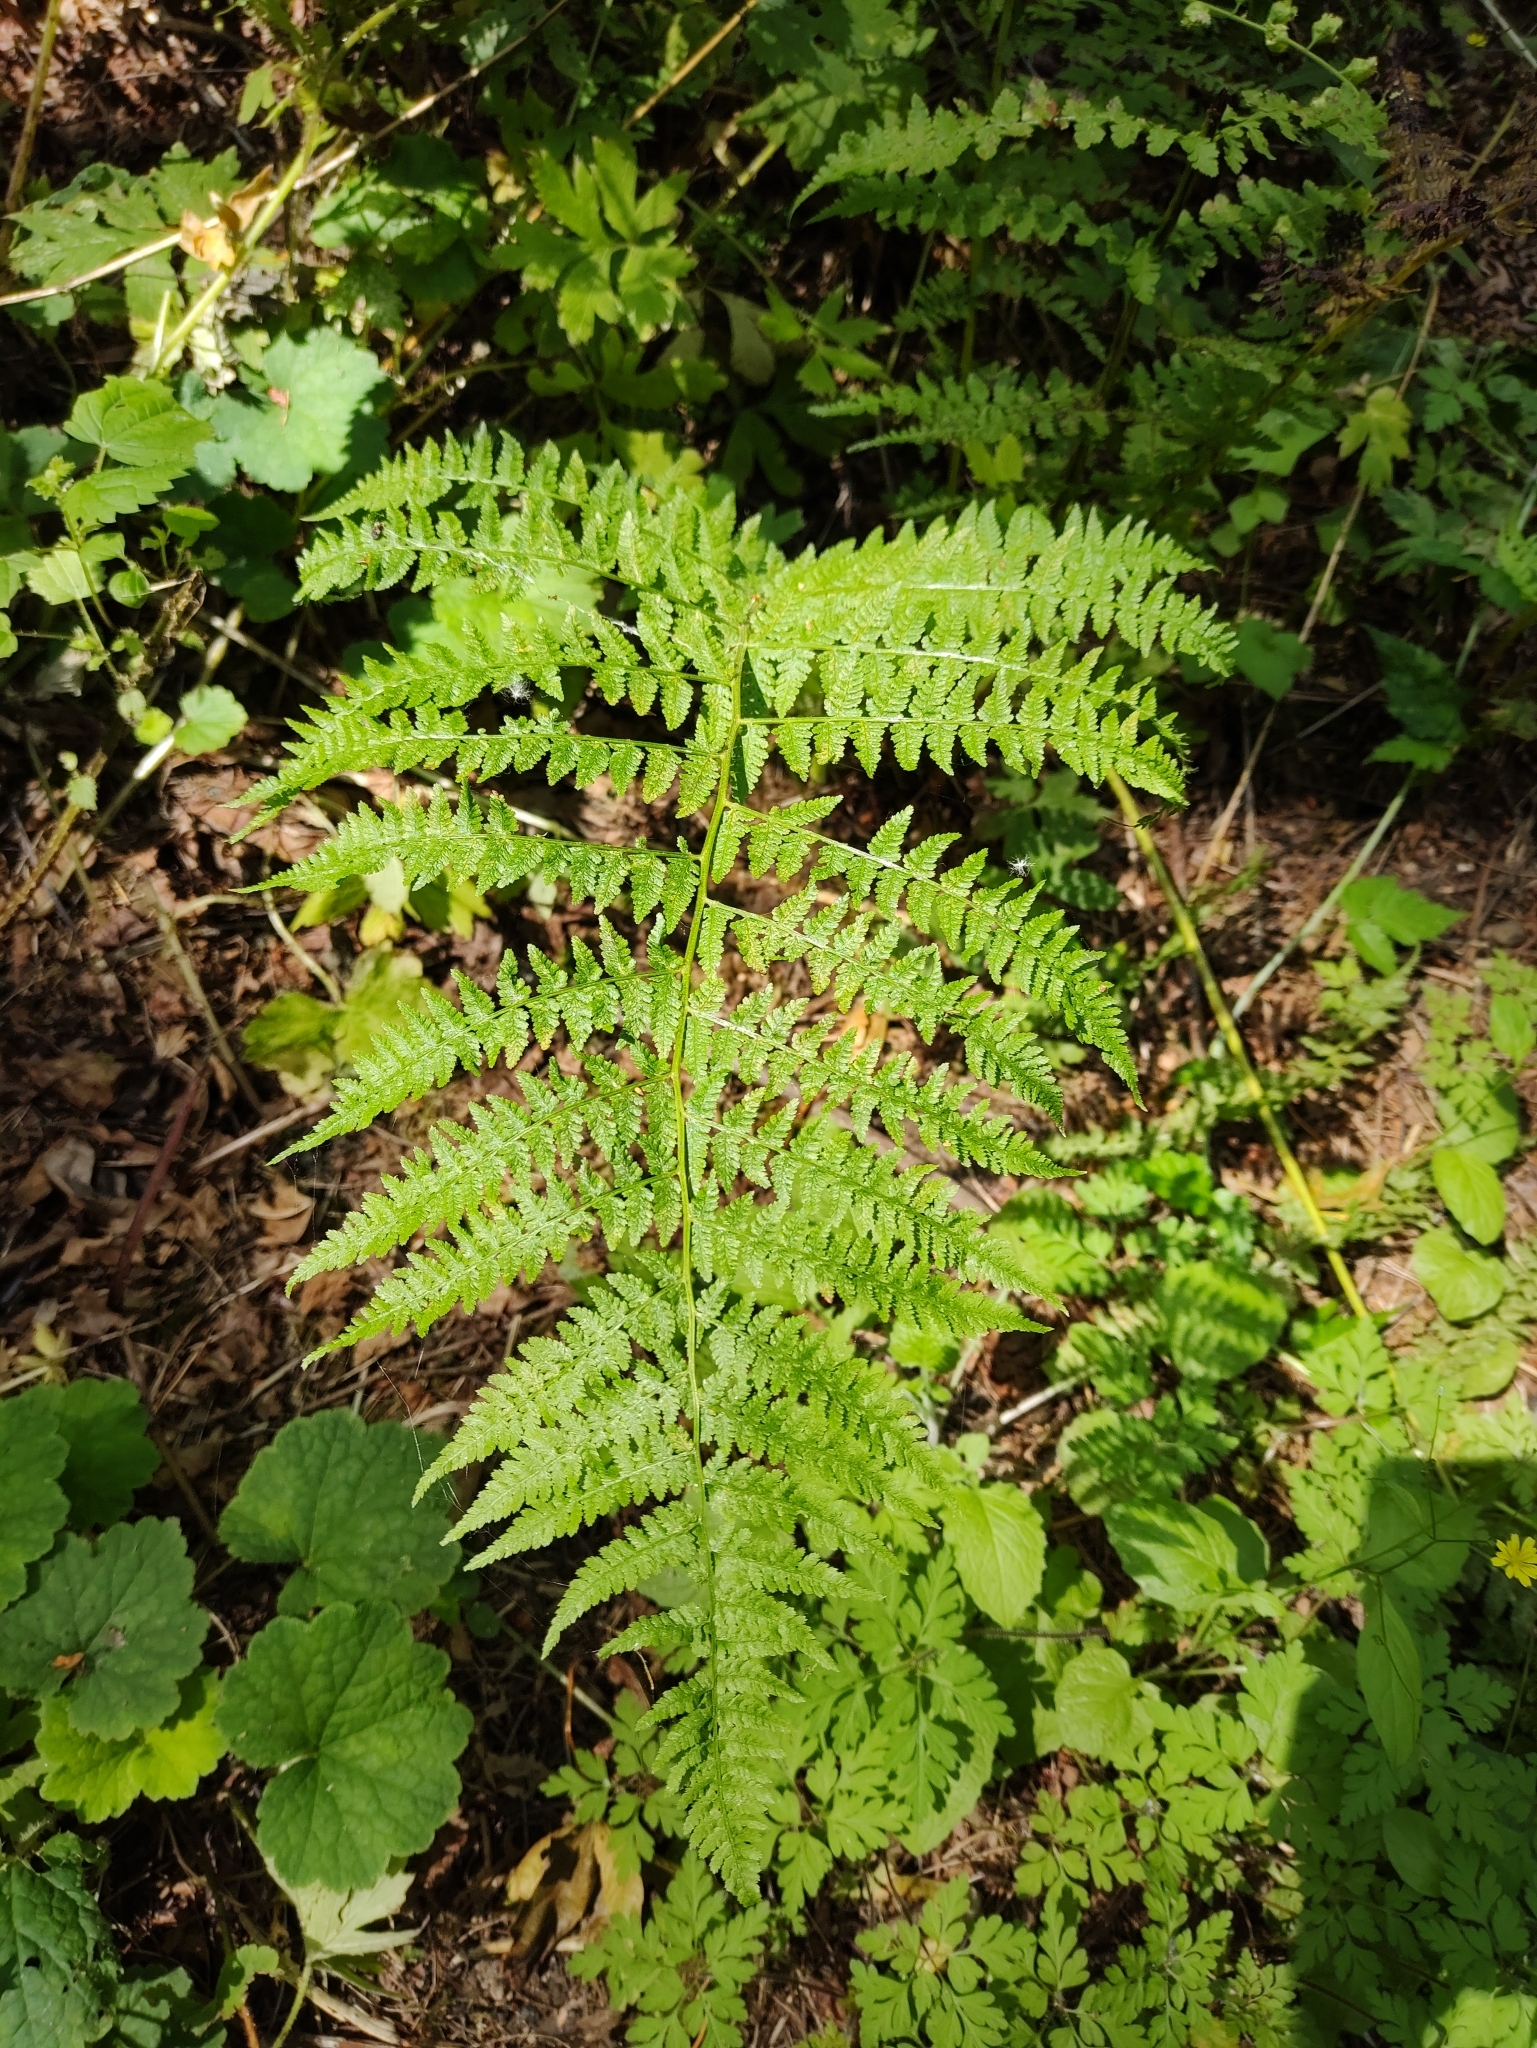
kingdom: Plantae
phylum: Tracheophyta
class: Polypodiopsida
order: Polypodiales
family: Athyriaceae
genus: Athyrium
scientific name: Athyrium cyclosorum
